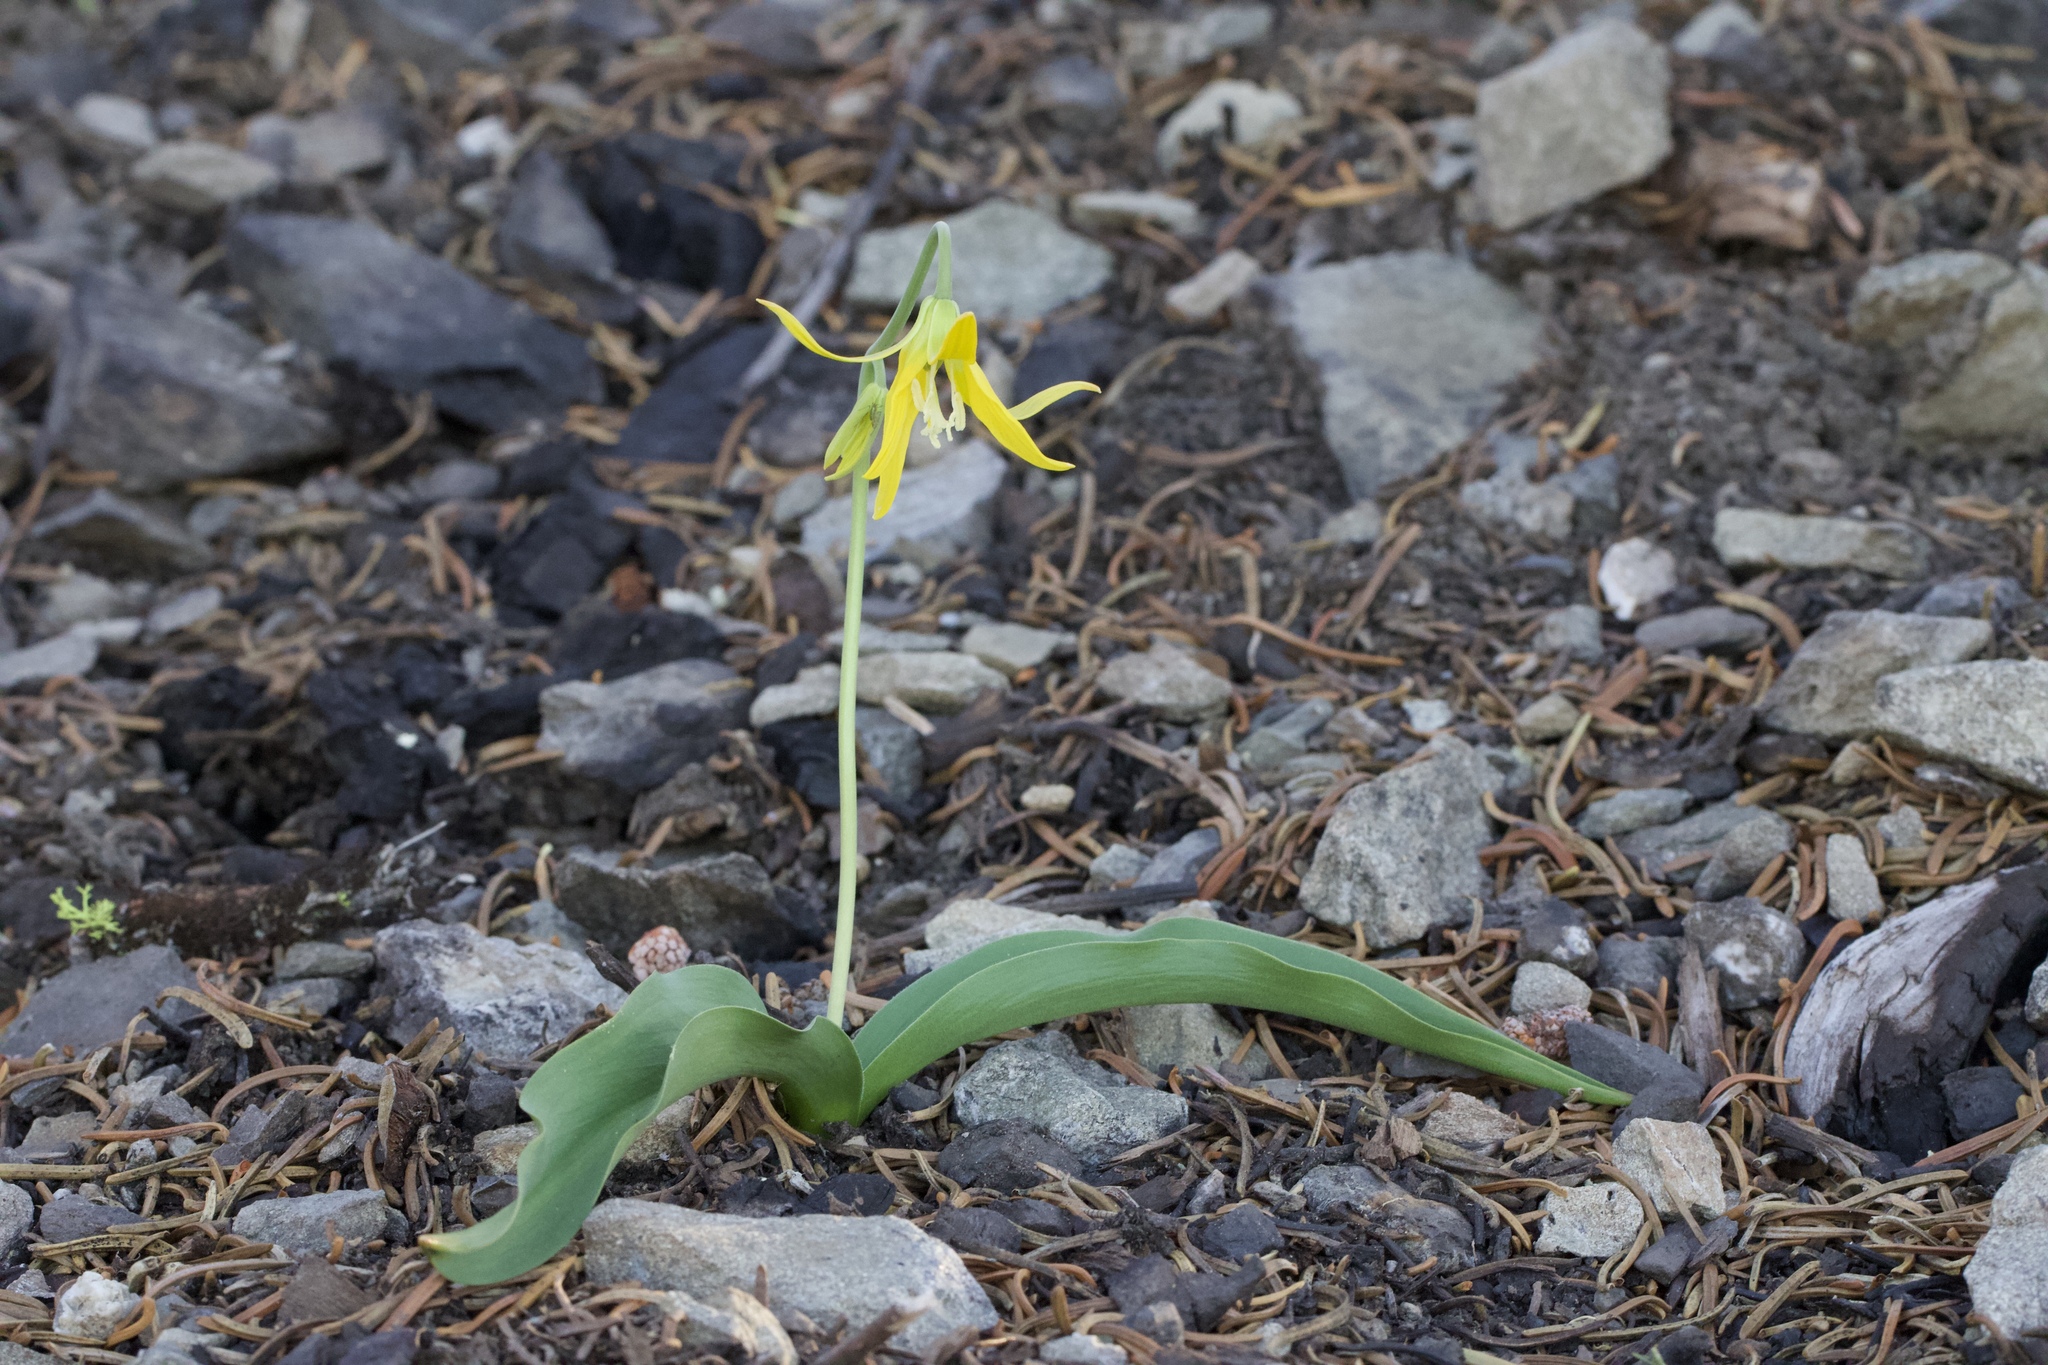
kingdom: Plantae
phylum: Tracheophyta
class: Liliopsida
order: Liliales
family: Liliaceae
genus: Erythronium
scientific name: Erythronium grandiflorum
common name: Avalanche-lily
